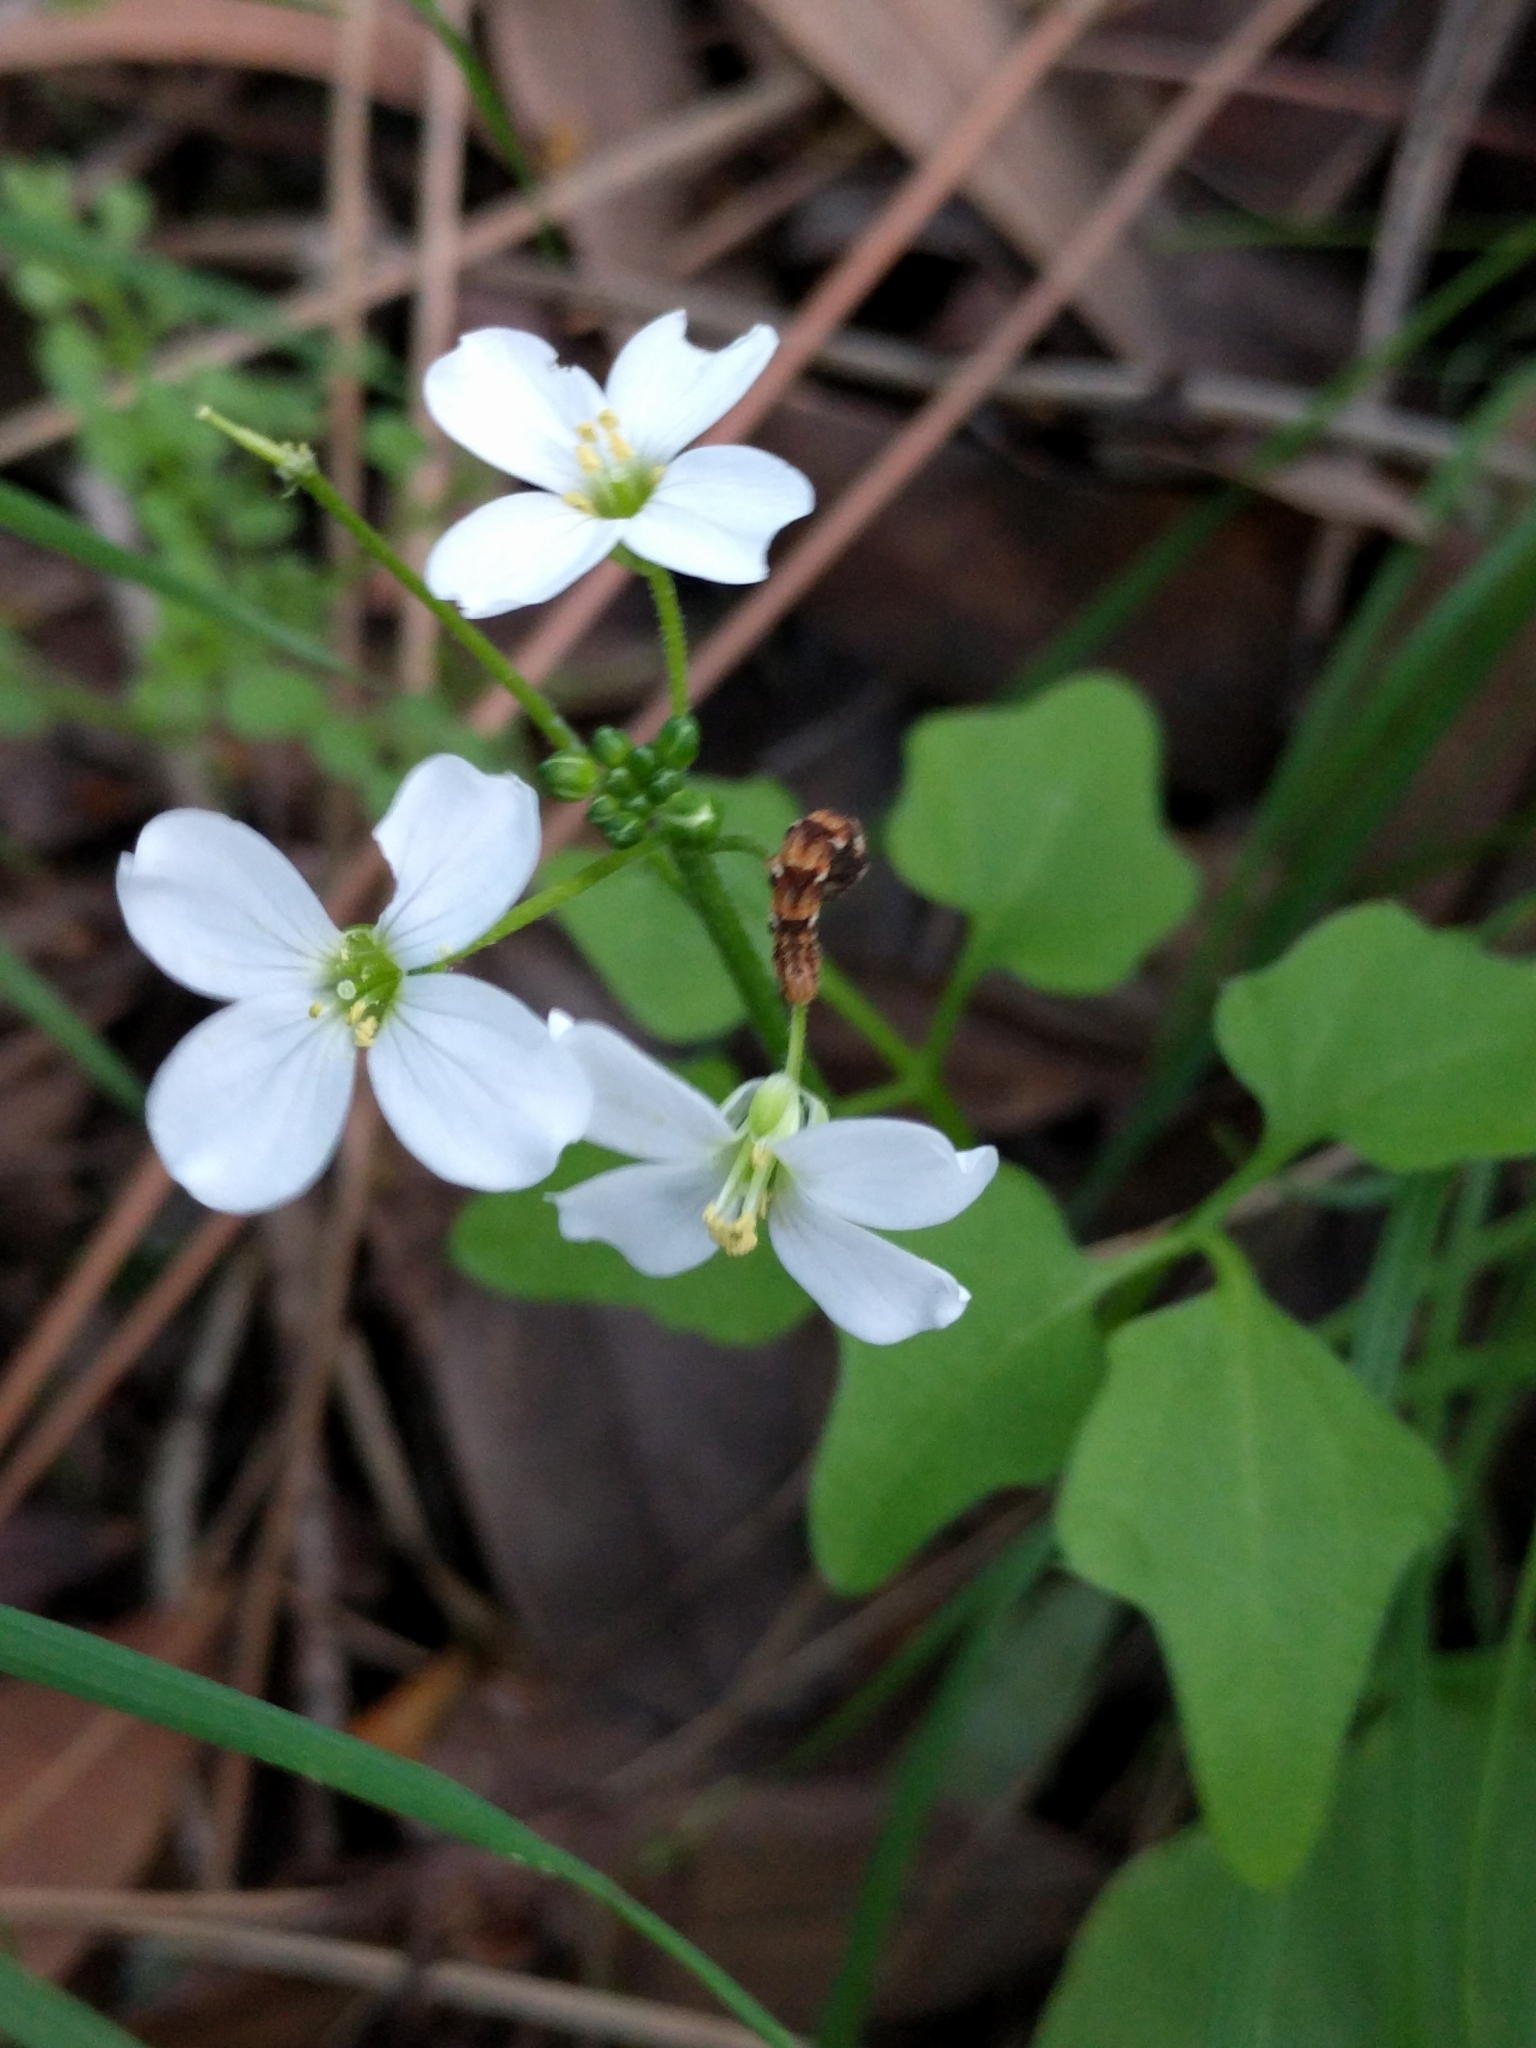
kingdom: Plantae
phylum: Tracheophyta
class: Magnoliopsida
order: Brassicales
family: Brassicaceae
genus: Cardamine
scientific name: Cardamine californica
